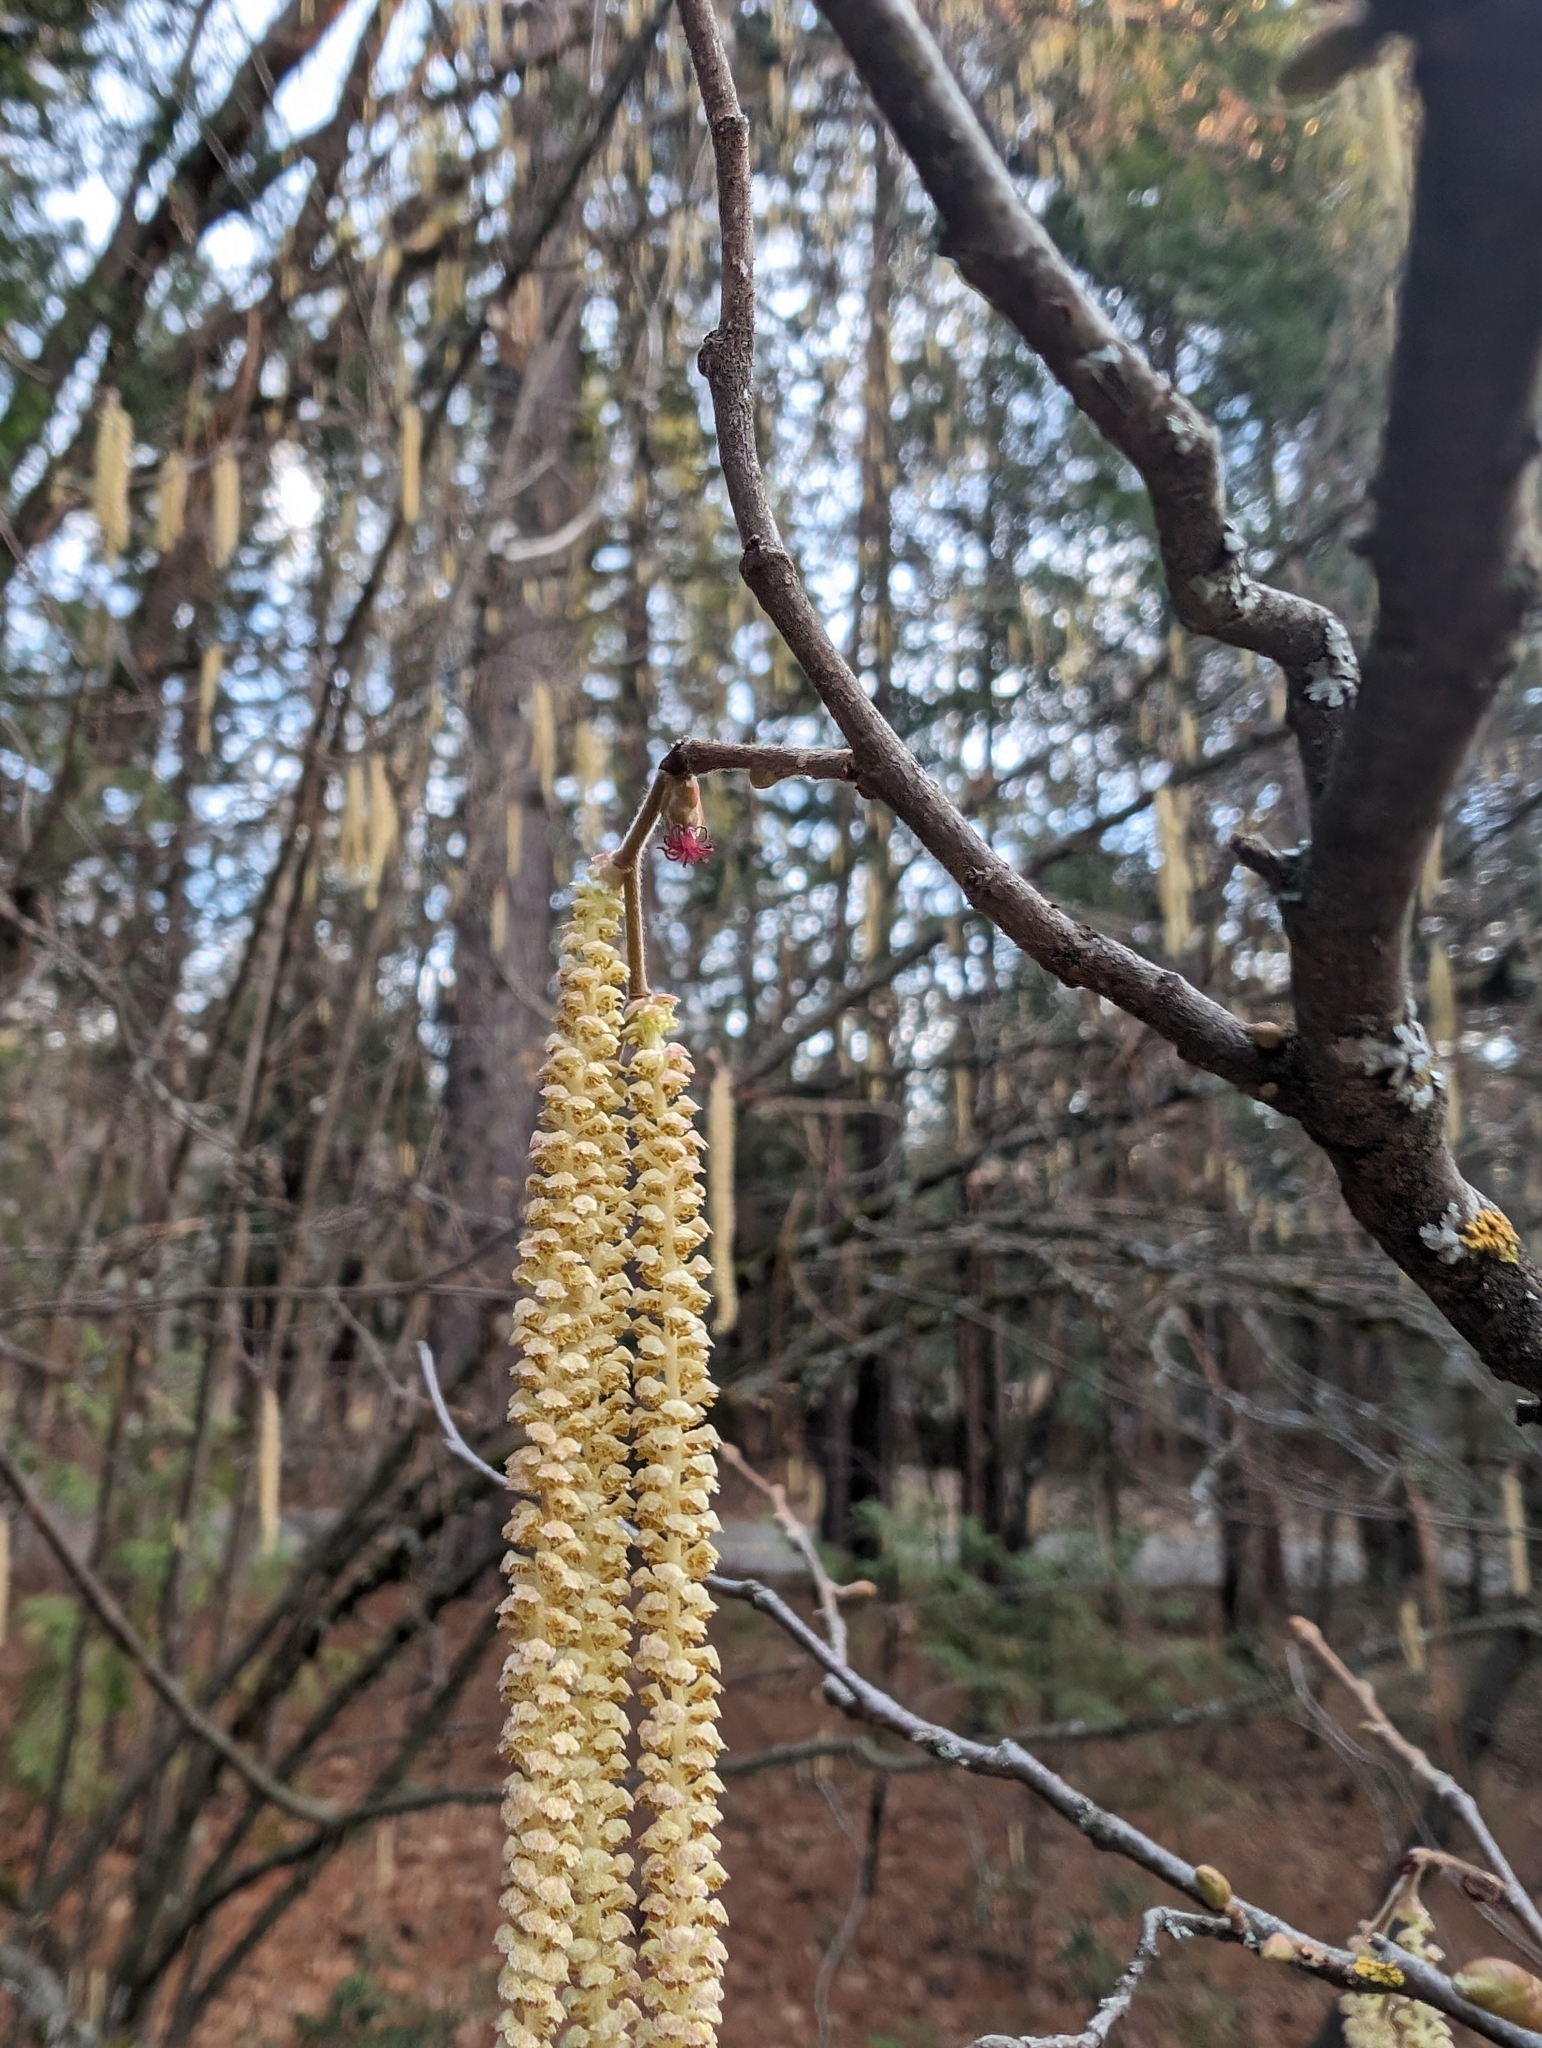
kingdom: Plantae
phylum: Tracheophyta
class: Magnoliopsida
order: Fagales
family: Betulaceae
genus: Corylus
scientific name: Corylus cornuta
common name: Beaked hazel
